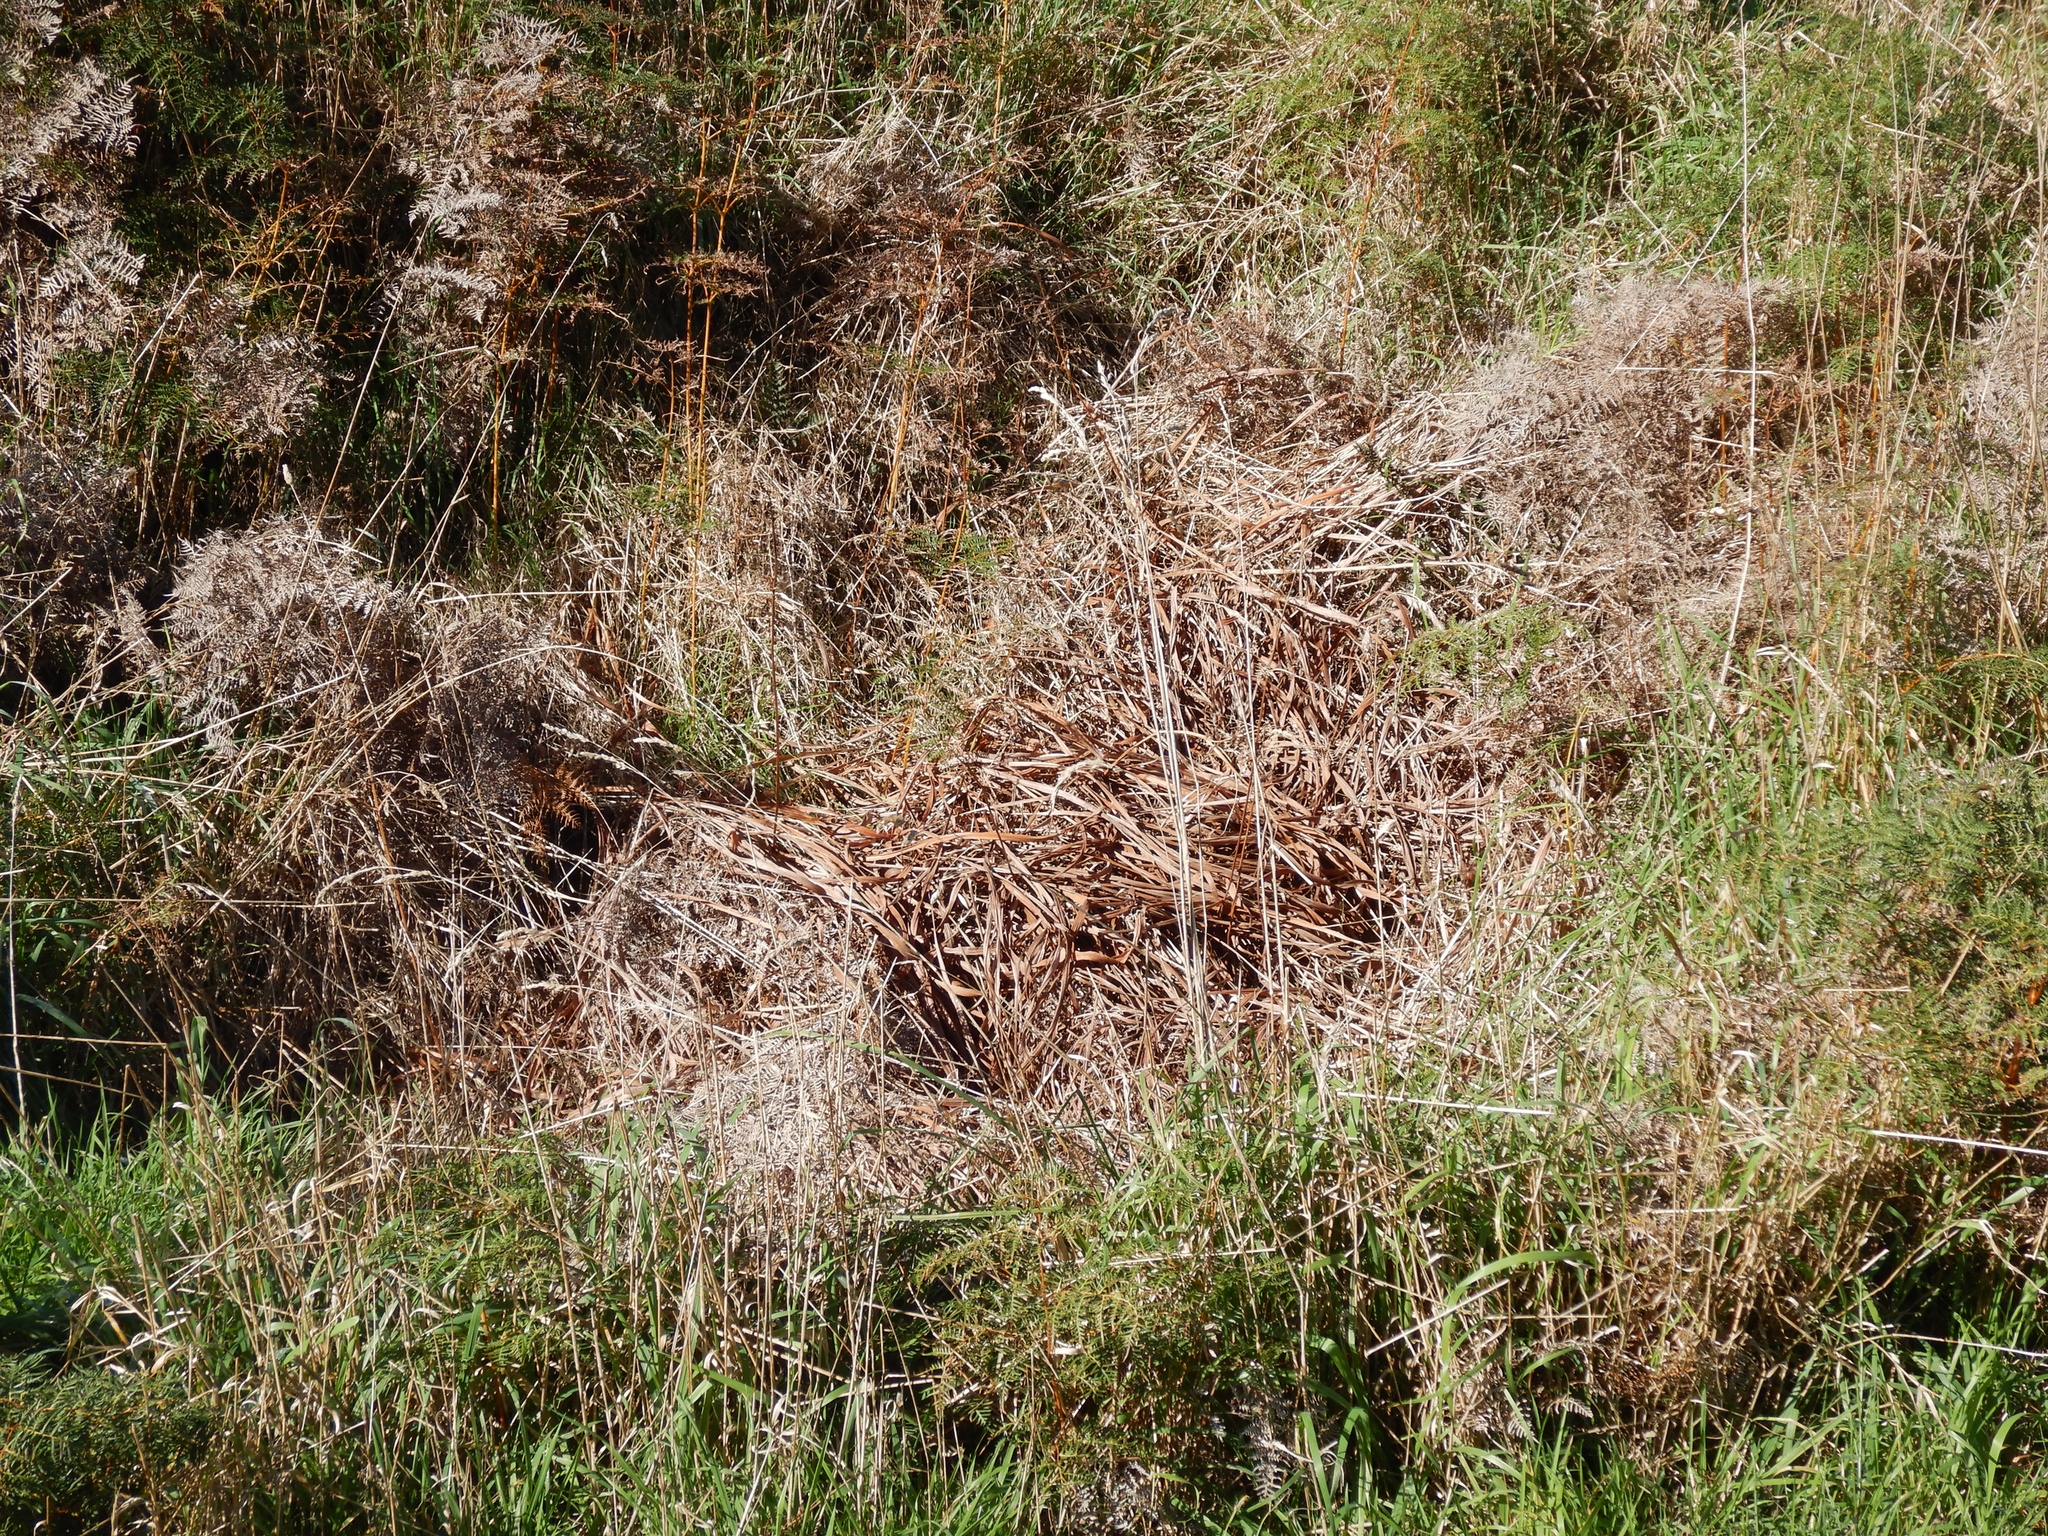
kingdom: Plantae
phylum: Tracheophyta
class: Liliopsida
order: Asparagales
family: Iridaceae
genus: Crocosmia
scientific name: Crocosmia crocosmiiflora
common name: Montbretia
